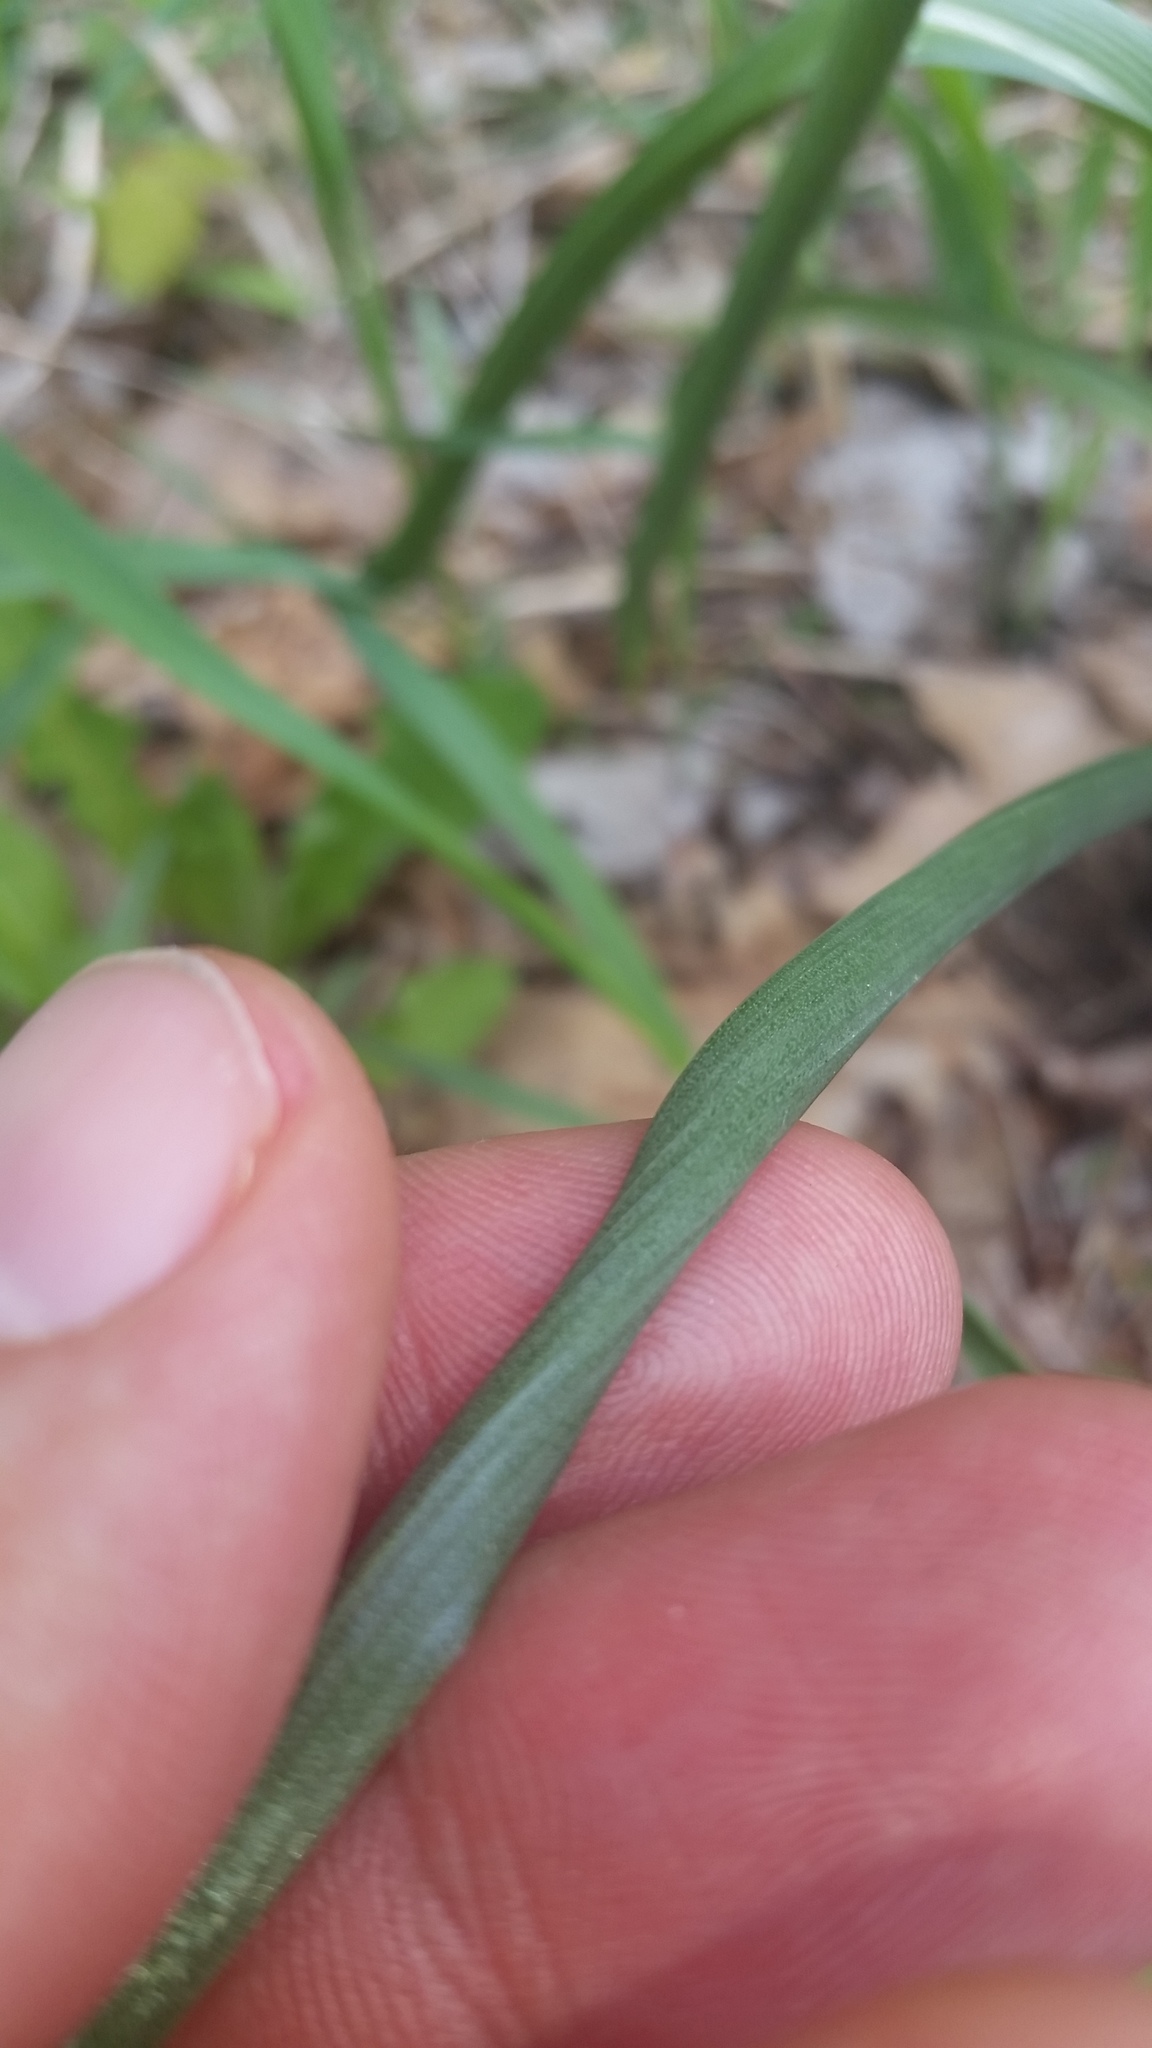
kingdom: Plantae
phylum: Tracheophyta
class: Liliopsida
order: Asparagales
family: Asparagaceae
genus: Ornithogalum
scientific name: Ornithogalum nutans
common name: Drooping star-of-bethlehem
